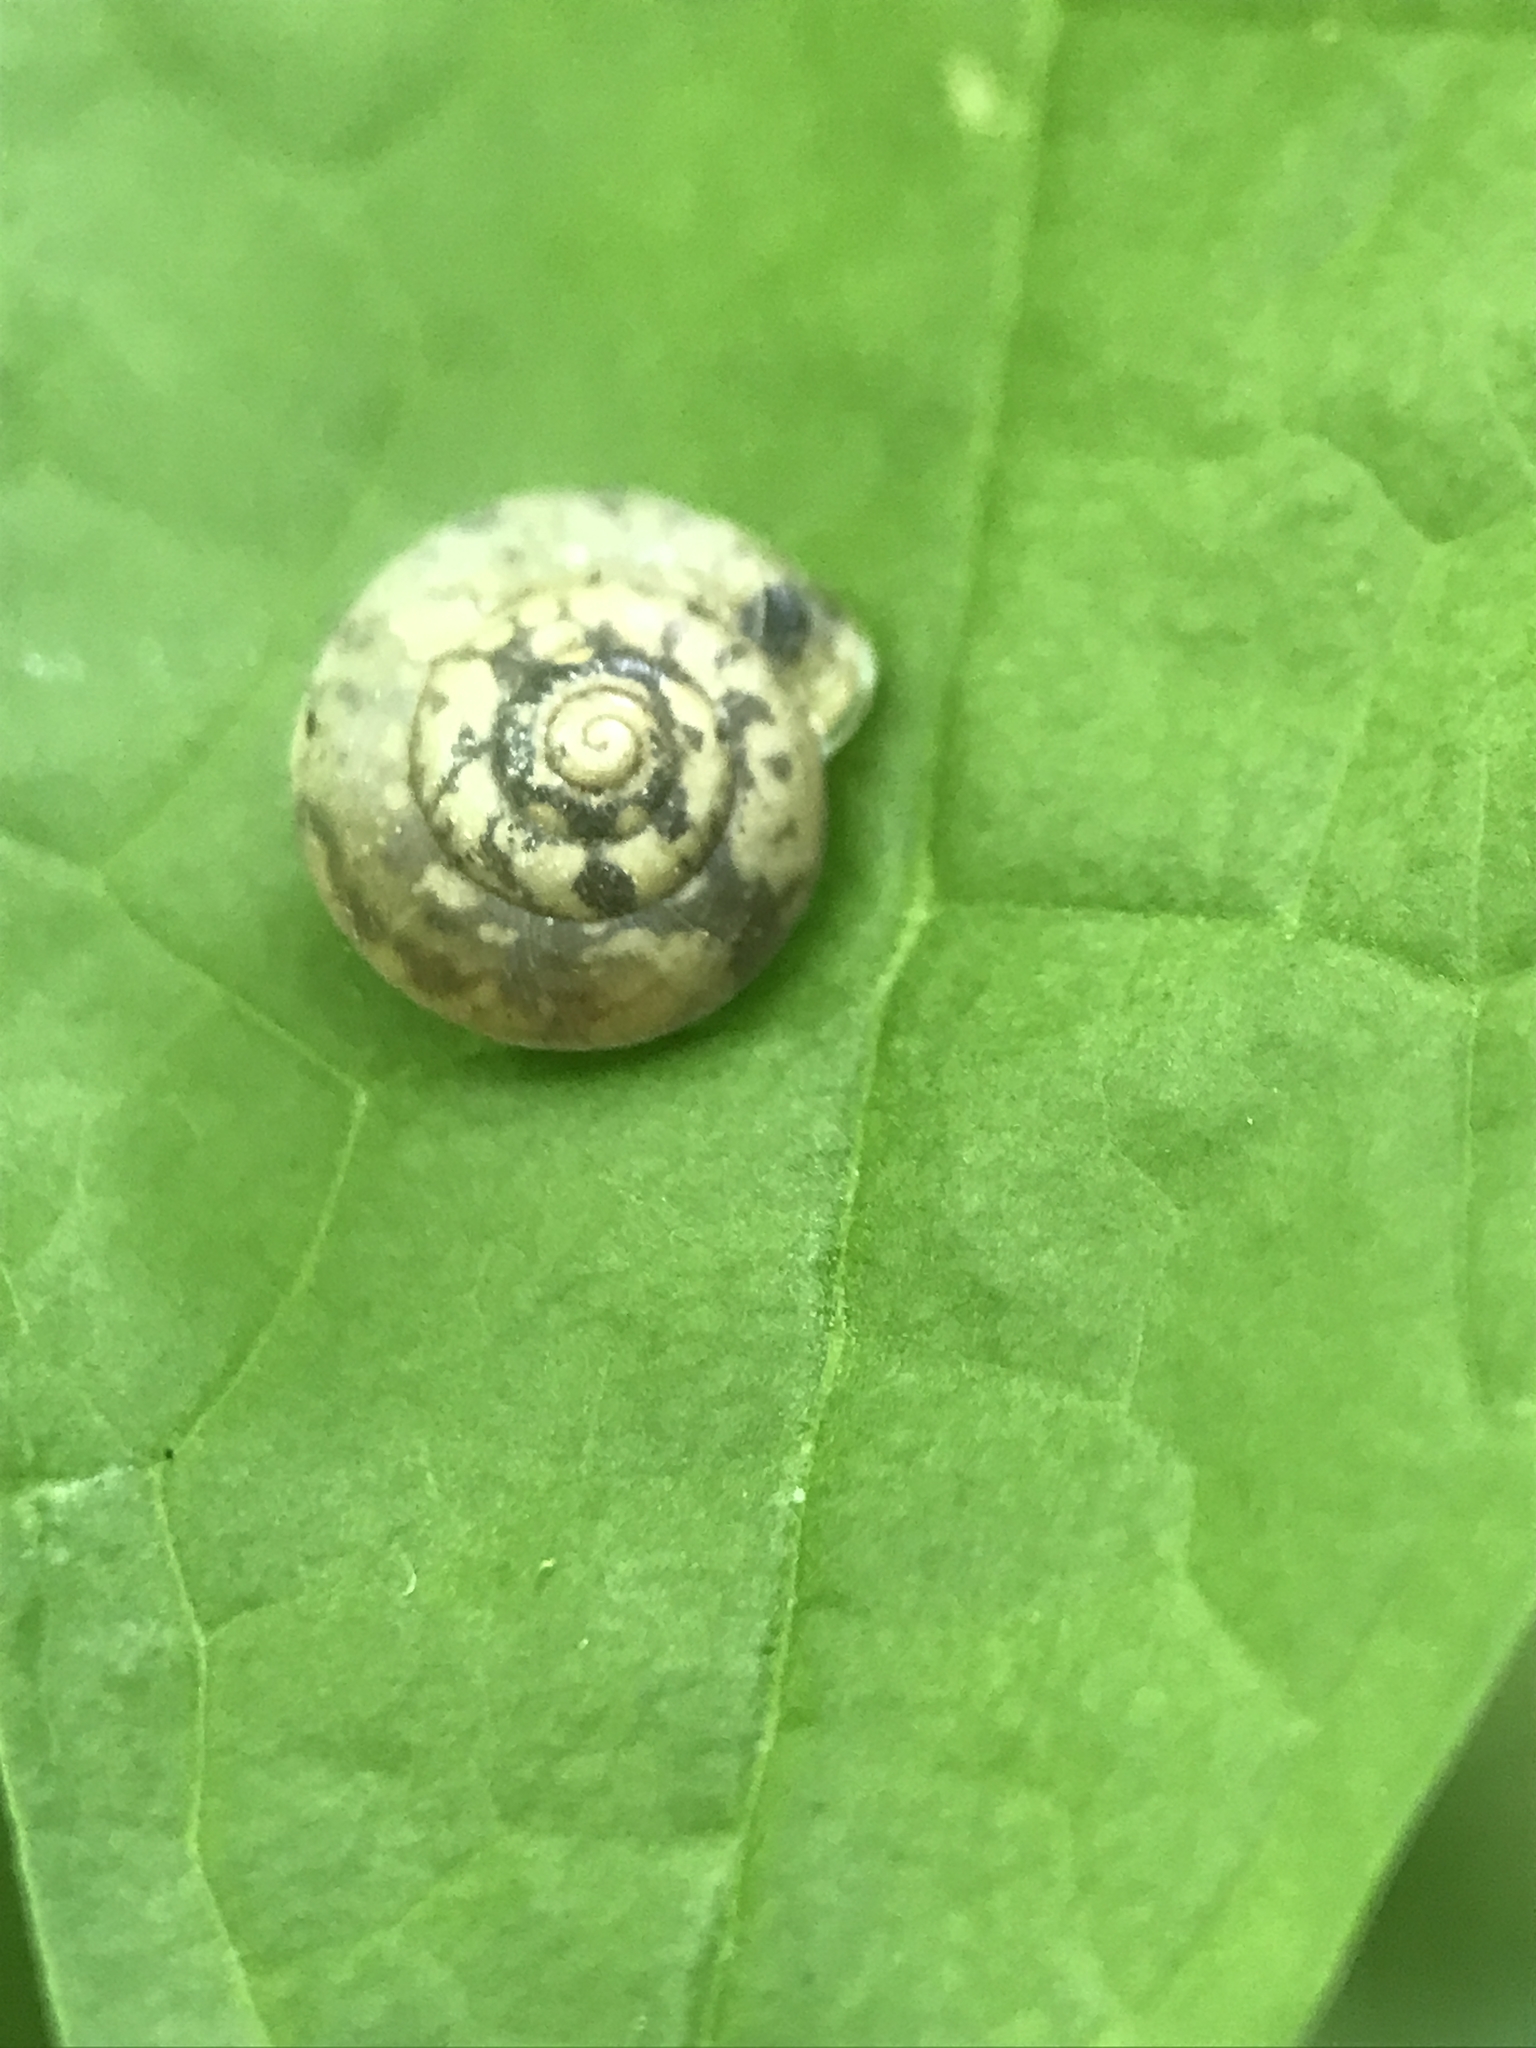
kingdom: Animalia
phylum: Mollusca
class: Gastropoda
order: Stylommatophora
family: Hygromiidae
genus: Hygromia
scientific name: Hygromia cinctella
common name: Girdled snail
